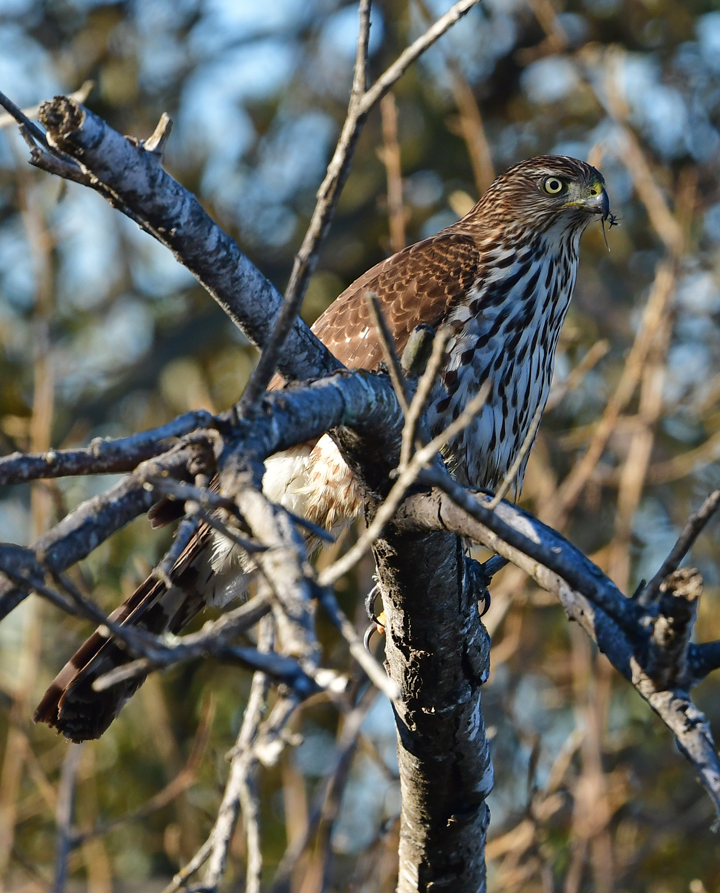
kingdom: Animalia
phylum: Chordata
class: Aves
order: Accipitriformes
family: Accipitridae
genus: Accipiter
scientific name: Accipiter cooperii
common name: Cooper's hawk
